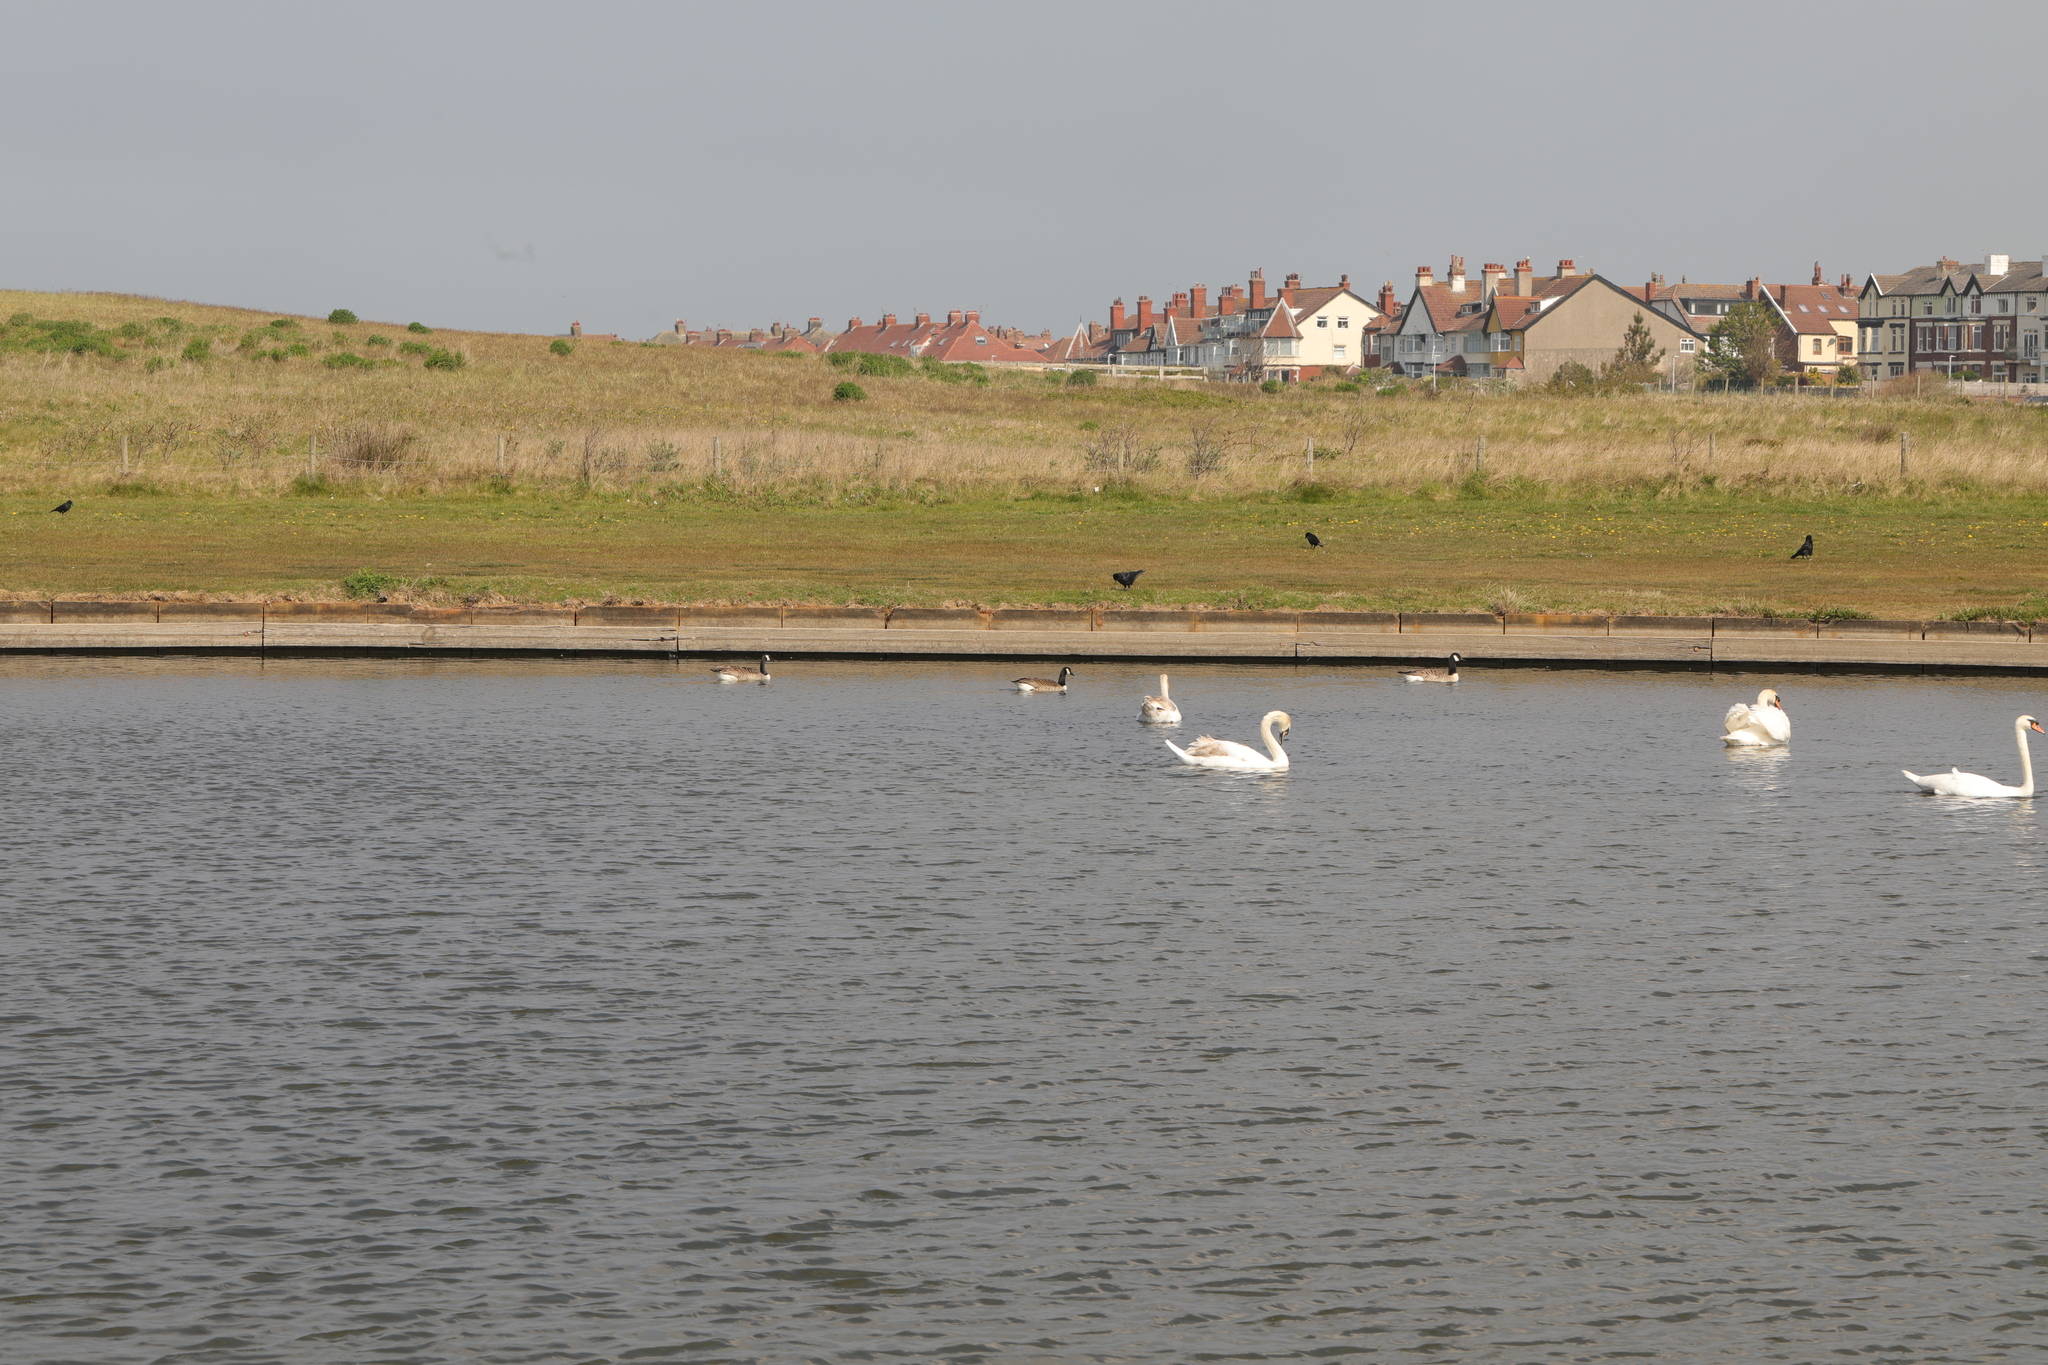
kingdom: Animalia
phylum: Chordata
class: Aves
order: Anseriformes
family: Anatidae
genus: Branta
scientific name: Branta canadensis
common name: Canada goose
